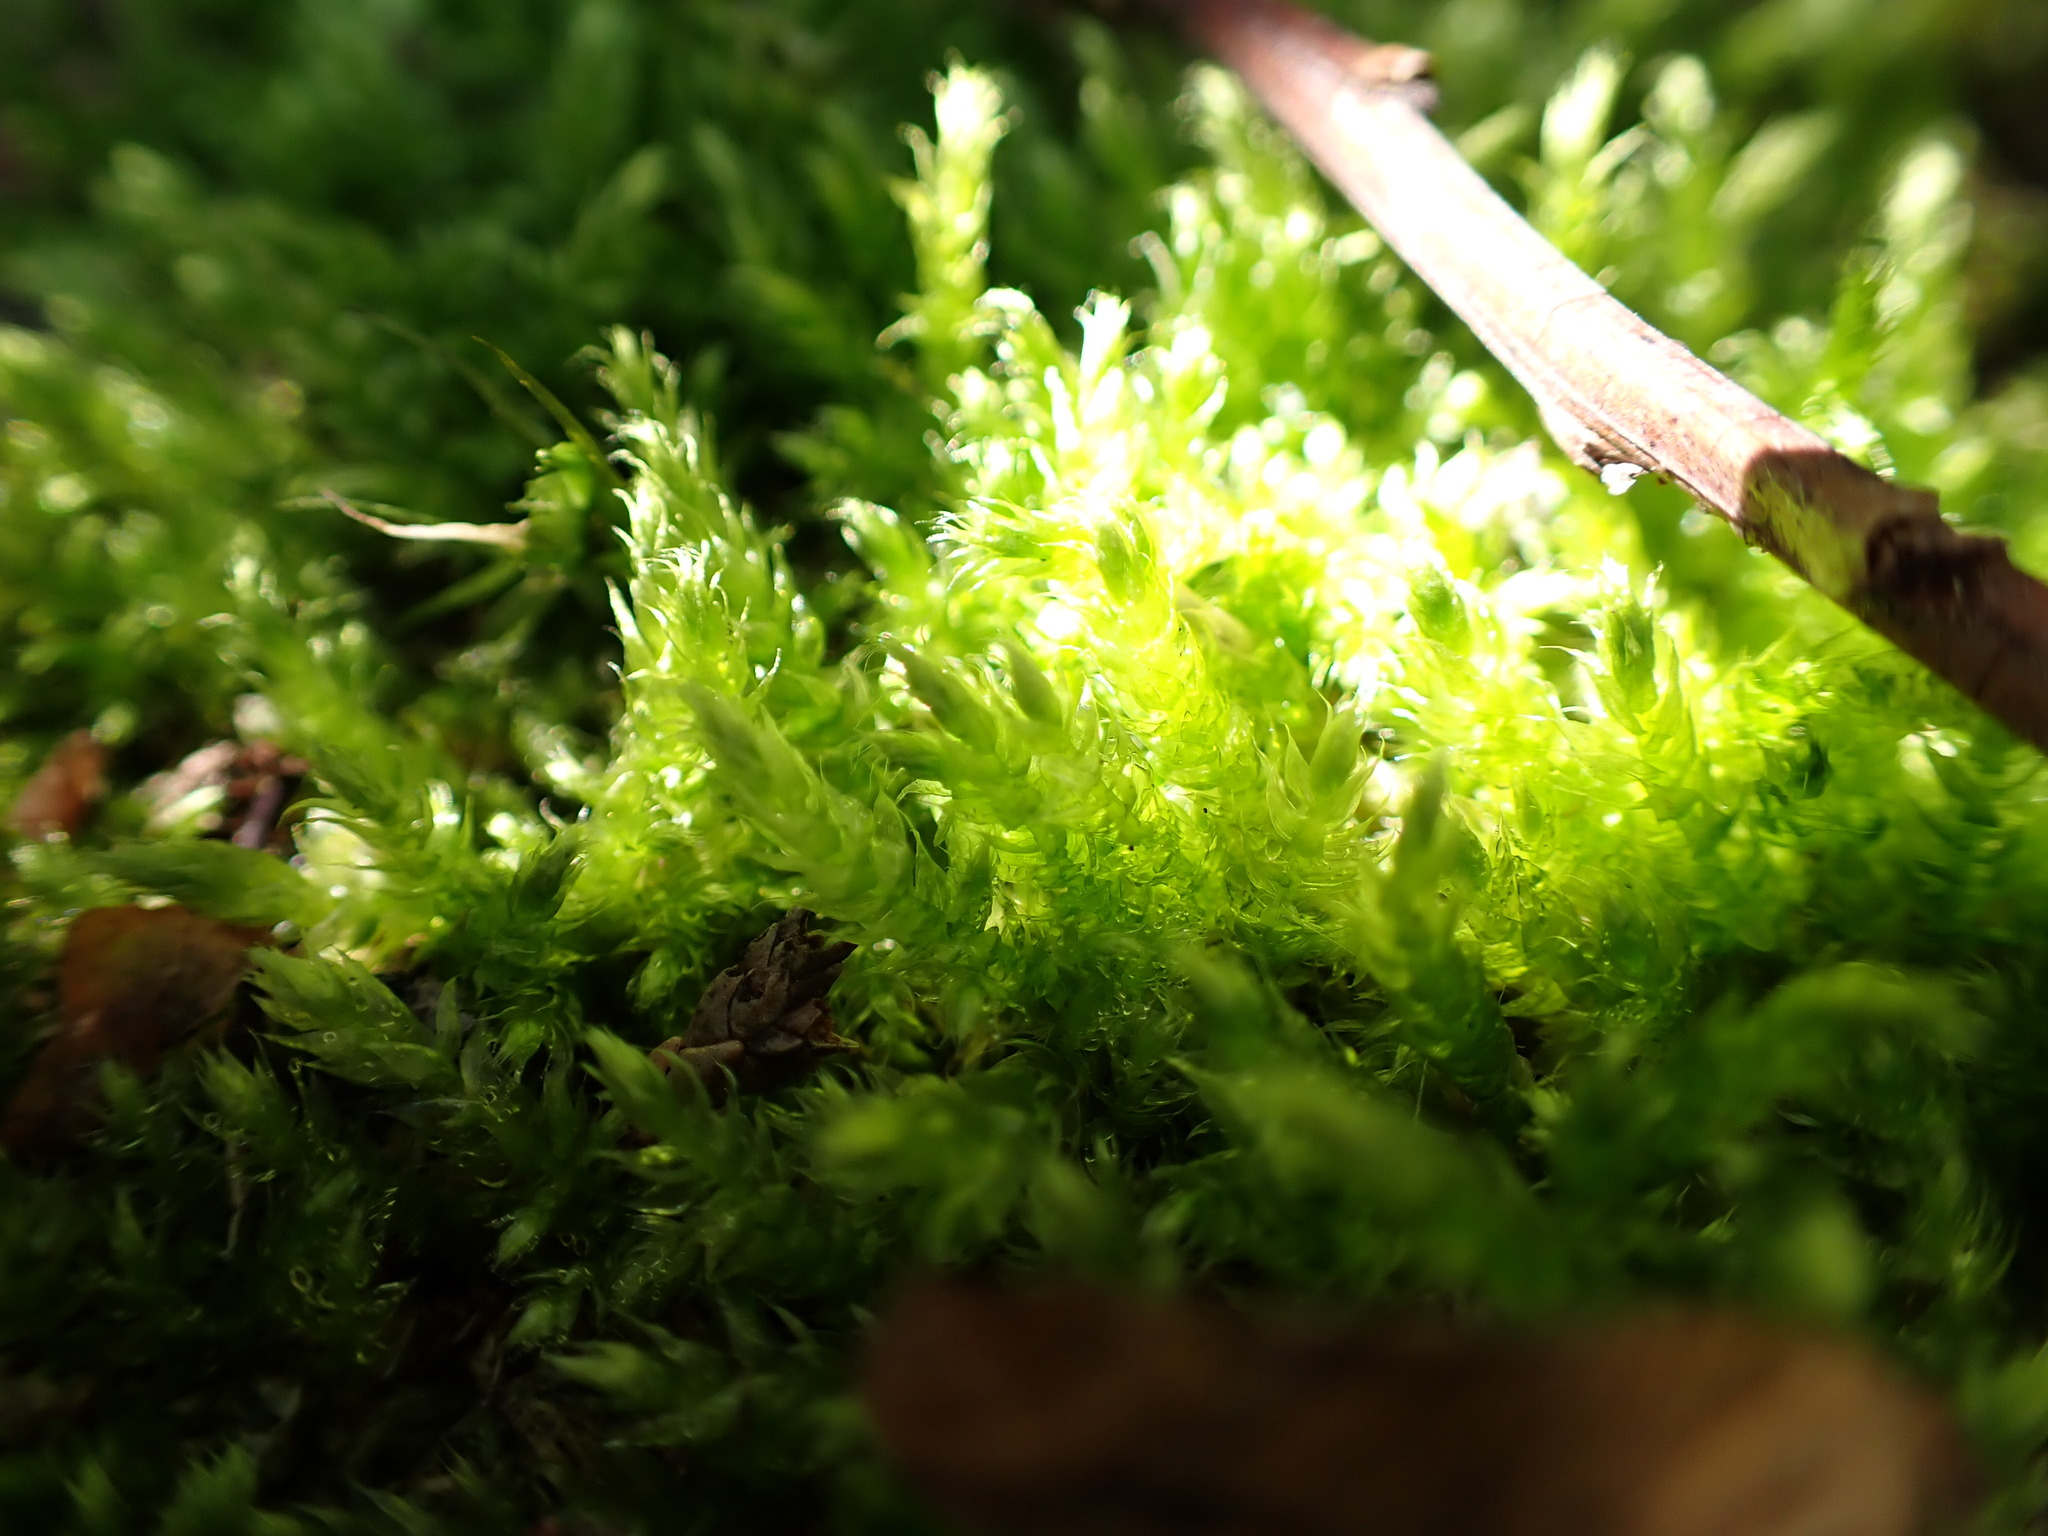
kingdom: Plantae
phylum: Bryophyta
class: Bryopsida
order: Hypnales
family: Plagiotheciaceae
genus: Pseudotaxiphyllum
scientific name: Pseudotaxiphyllum elegans
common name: Elegant silk moss
